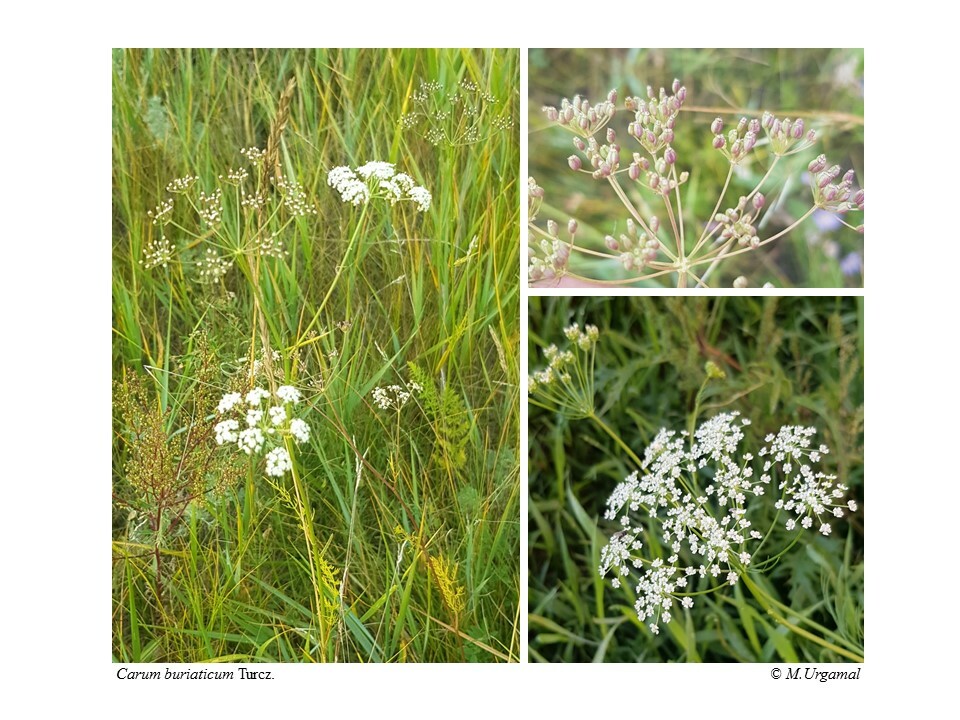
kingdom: Plantae
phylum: Tracheophyta
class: Magnoliopsida
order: Apiales
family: Apiaceae
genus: Carum
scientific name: Carum buriaticum
